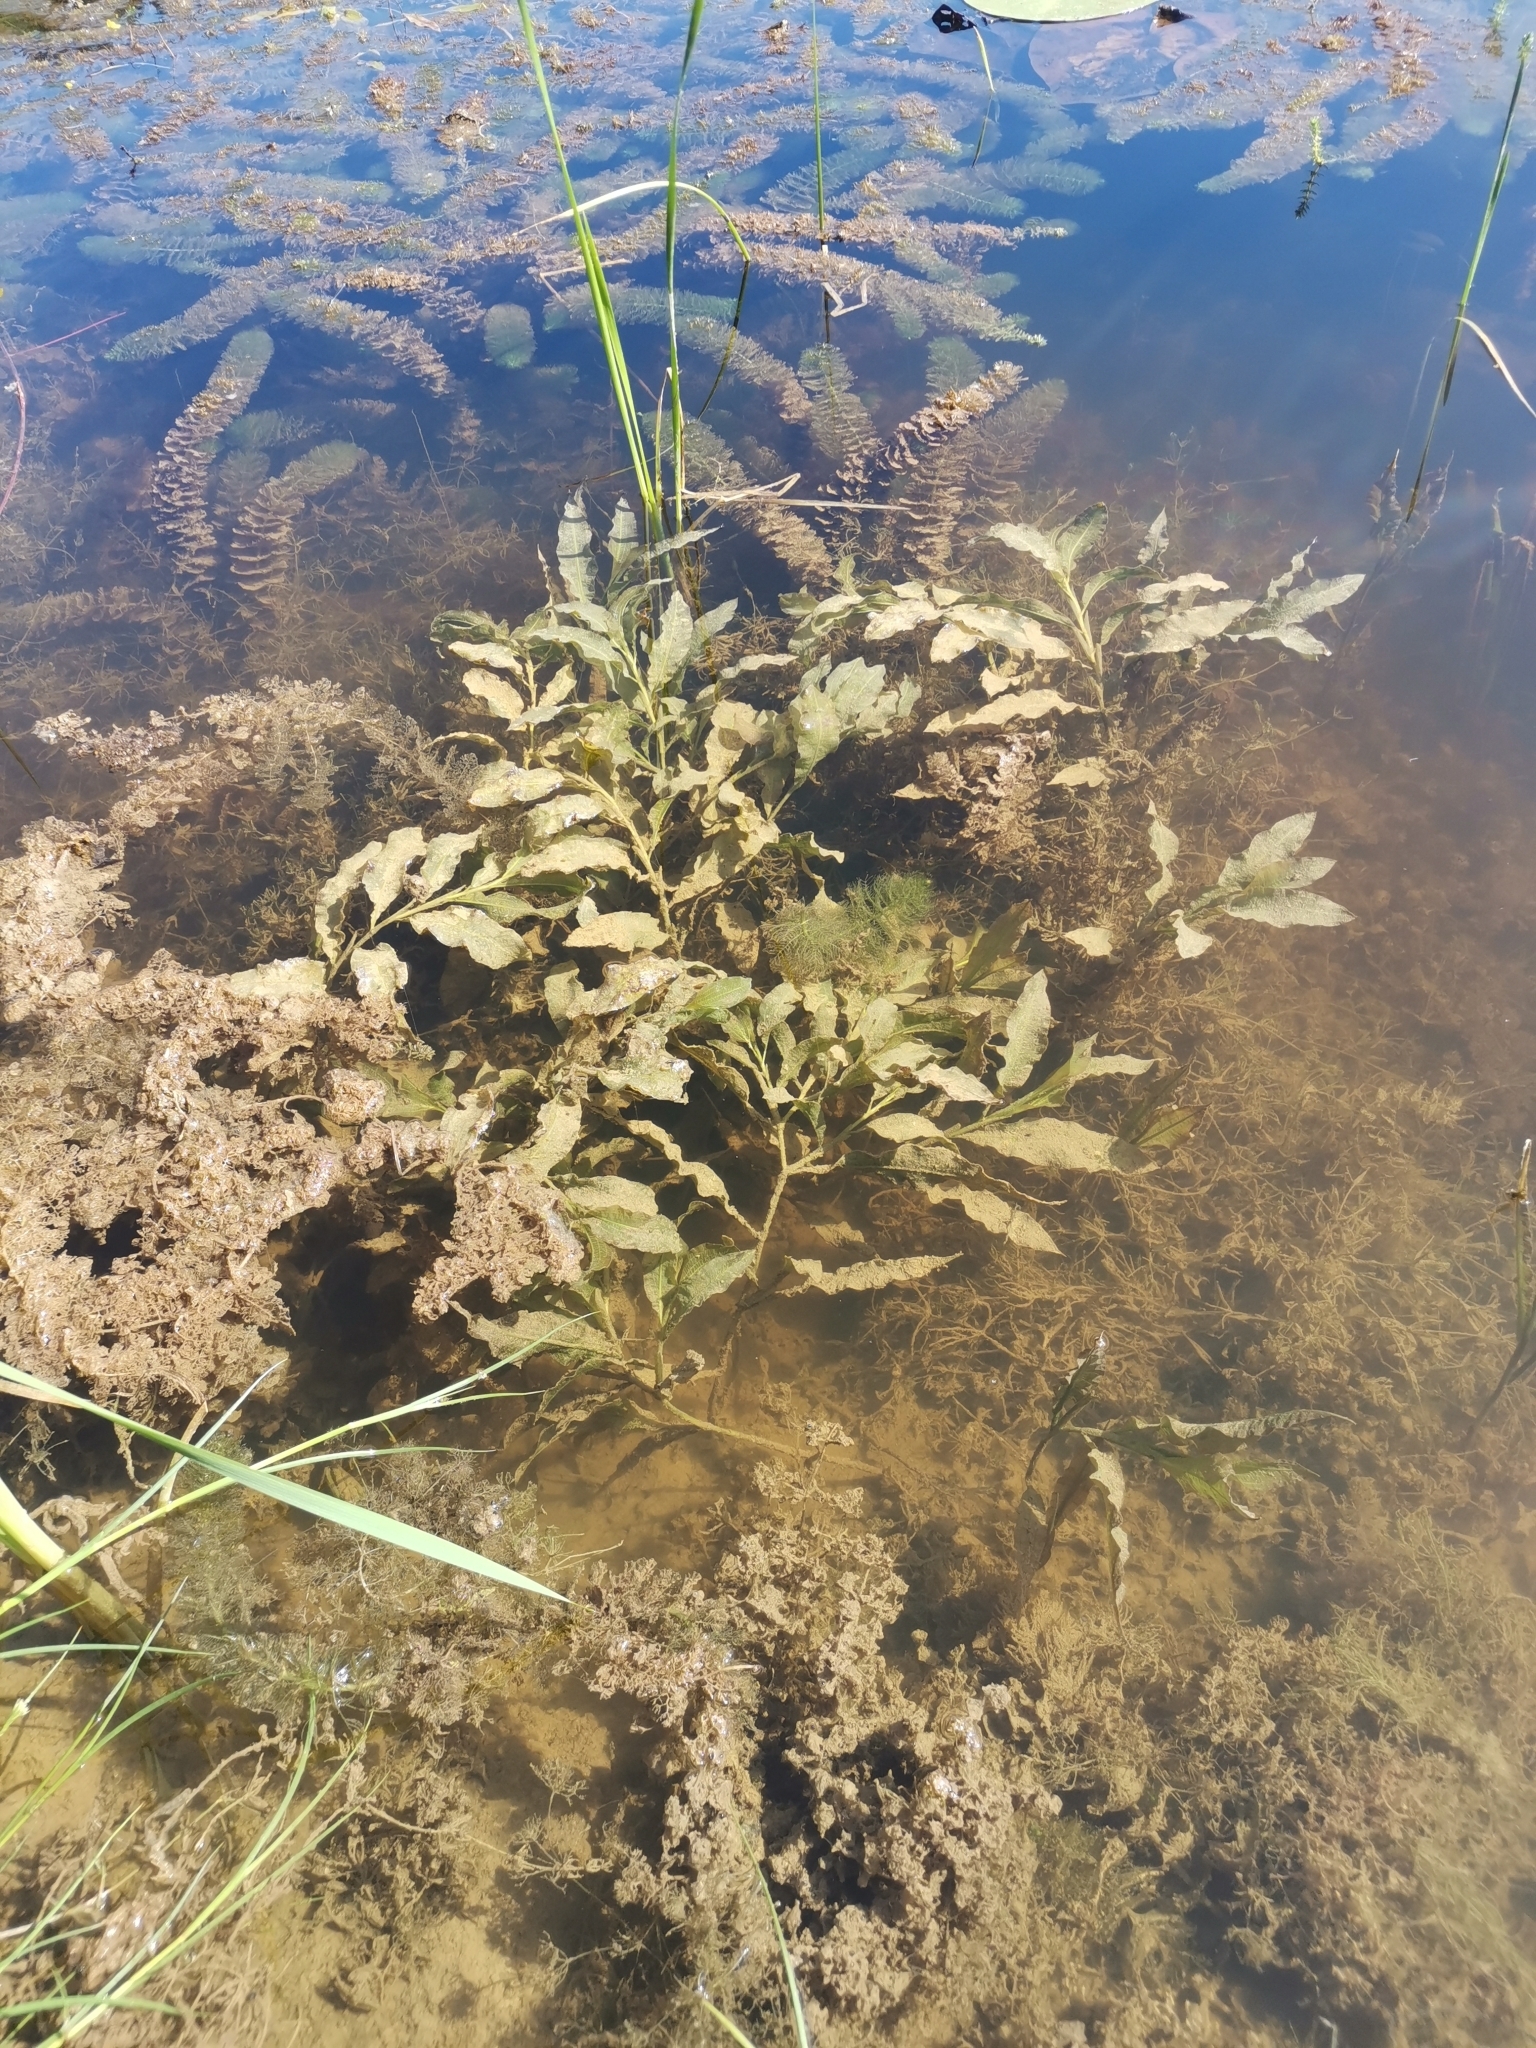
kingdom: Plantae
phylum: Tracheophyta
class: Liliopsida
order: Alismatales
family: Potamogetonaceae
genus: Potamogeton
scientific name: Potamogeton lucens
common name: Shining pondweed
